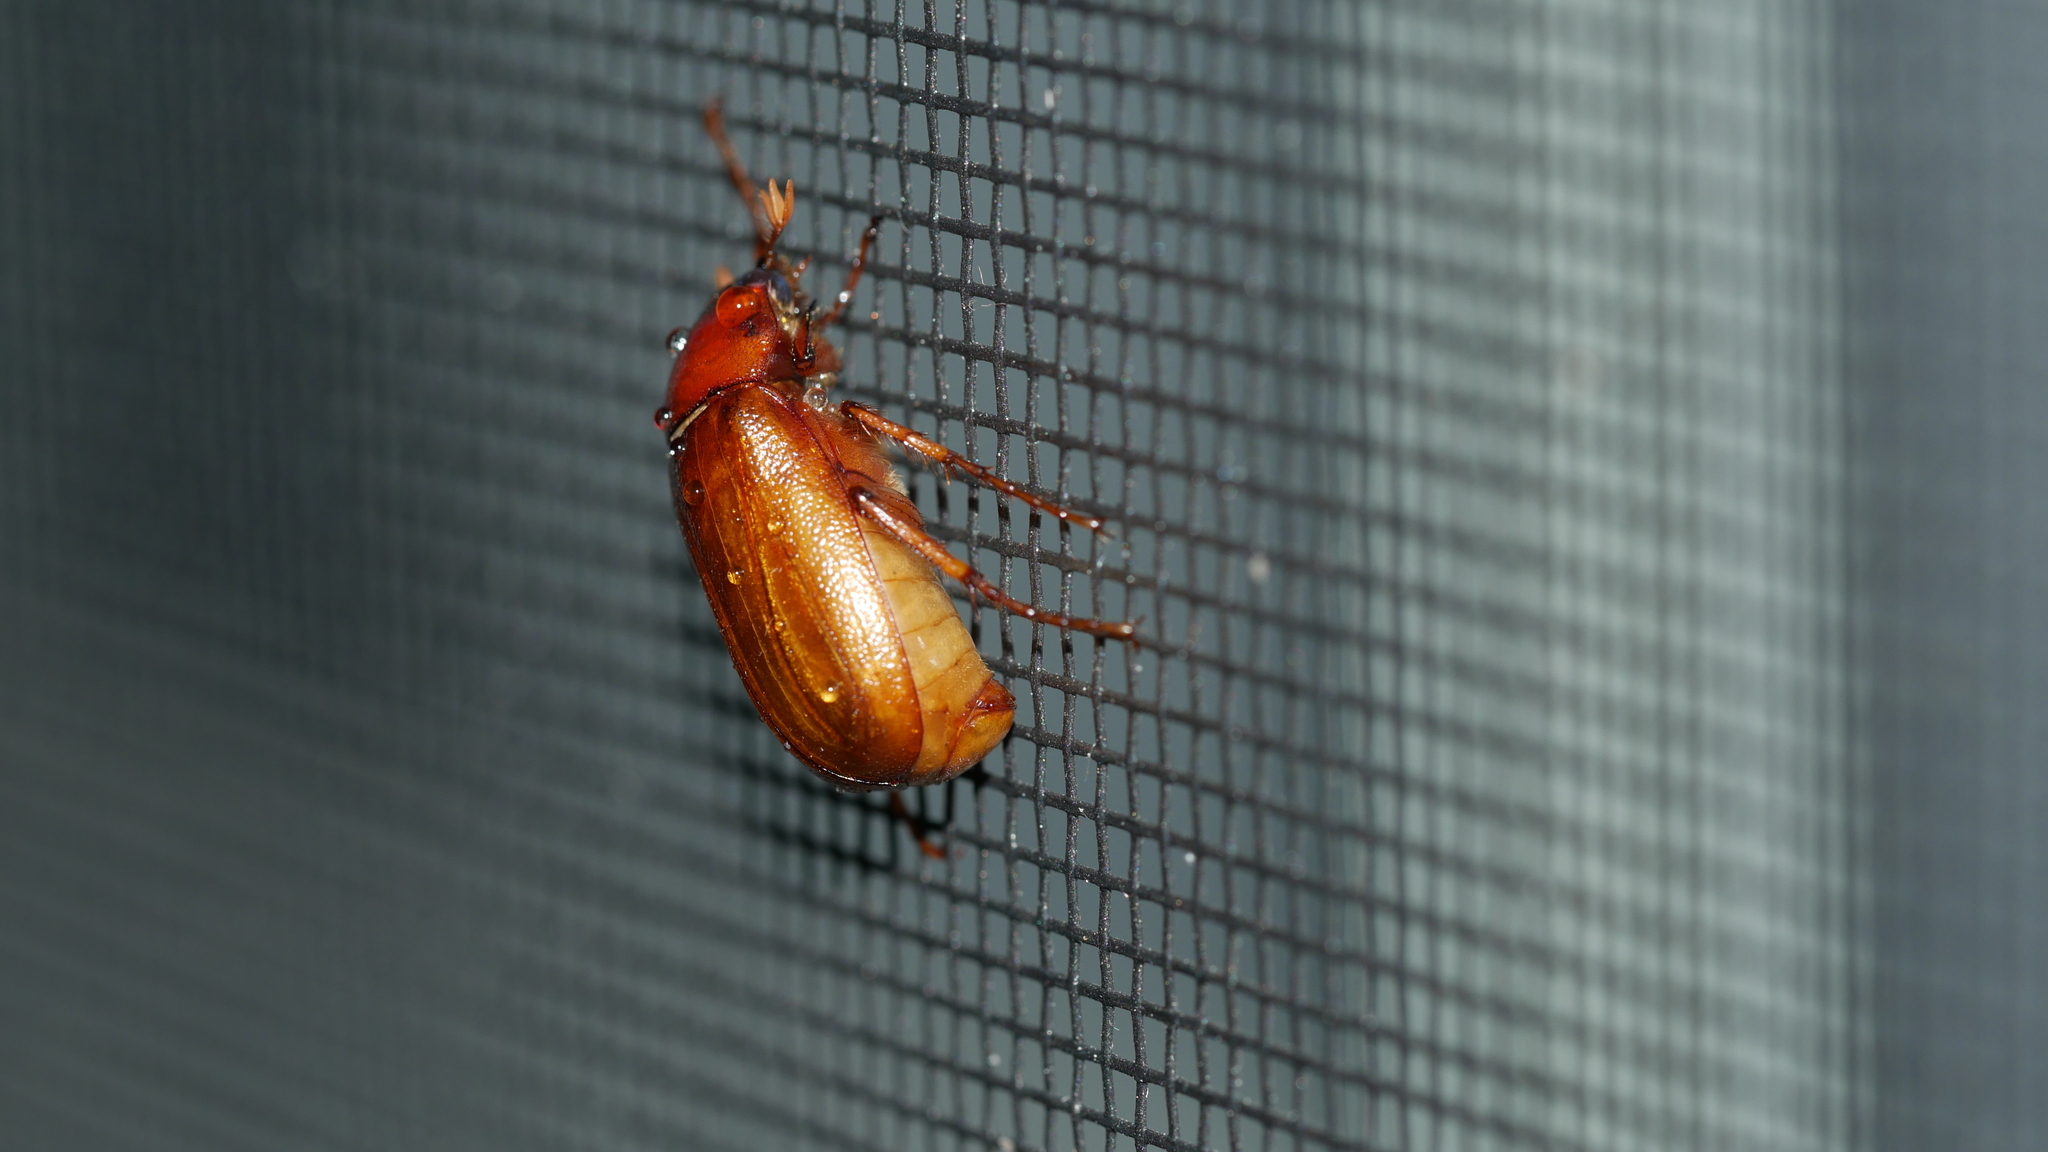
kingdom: Animalia
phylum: Arthropoda
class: Insecta
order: Coleoptera
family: Scarabaeidae
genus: Phyllophaga
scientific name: Phyllophaga
